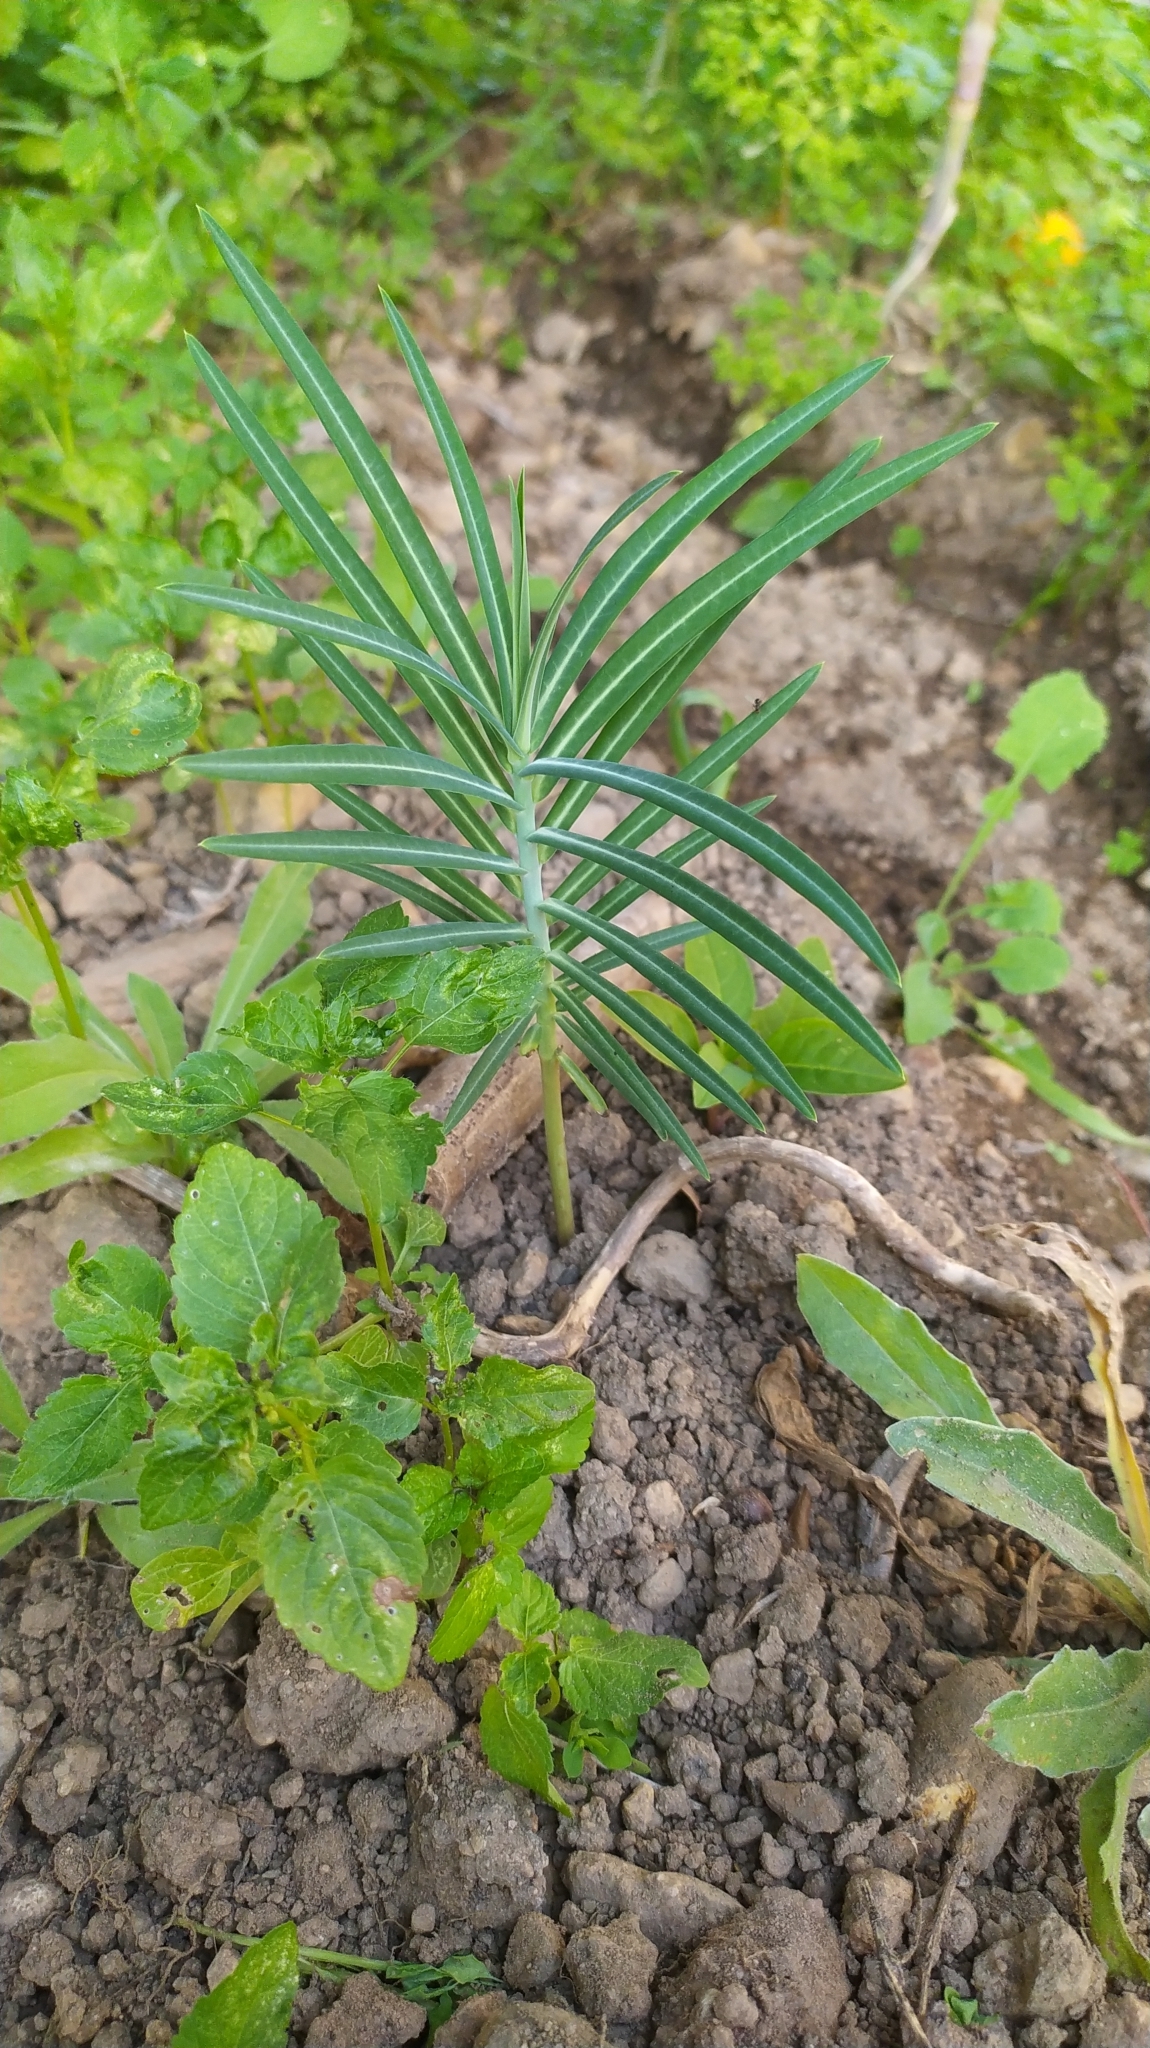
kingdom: Plantae
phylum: Tracheophyta
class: Magnoliopsida
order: Malpighiales
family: Euphorbiaceae
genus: Euphorbia
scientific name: Euphorbia lathyris
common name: Caper spurge
